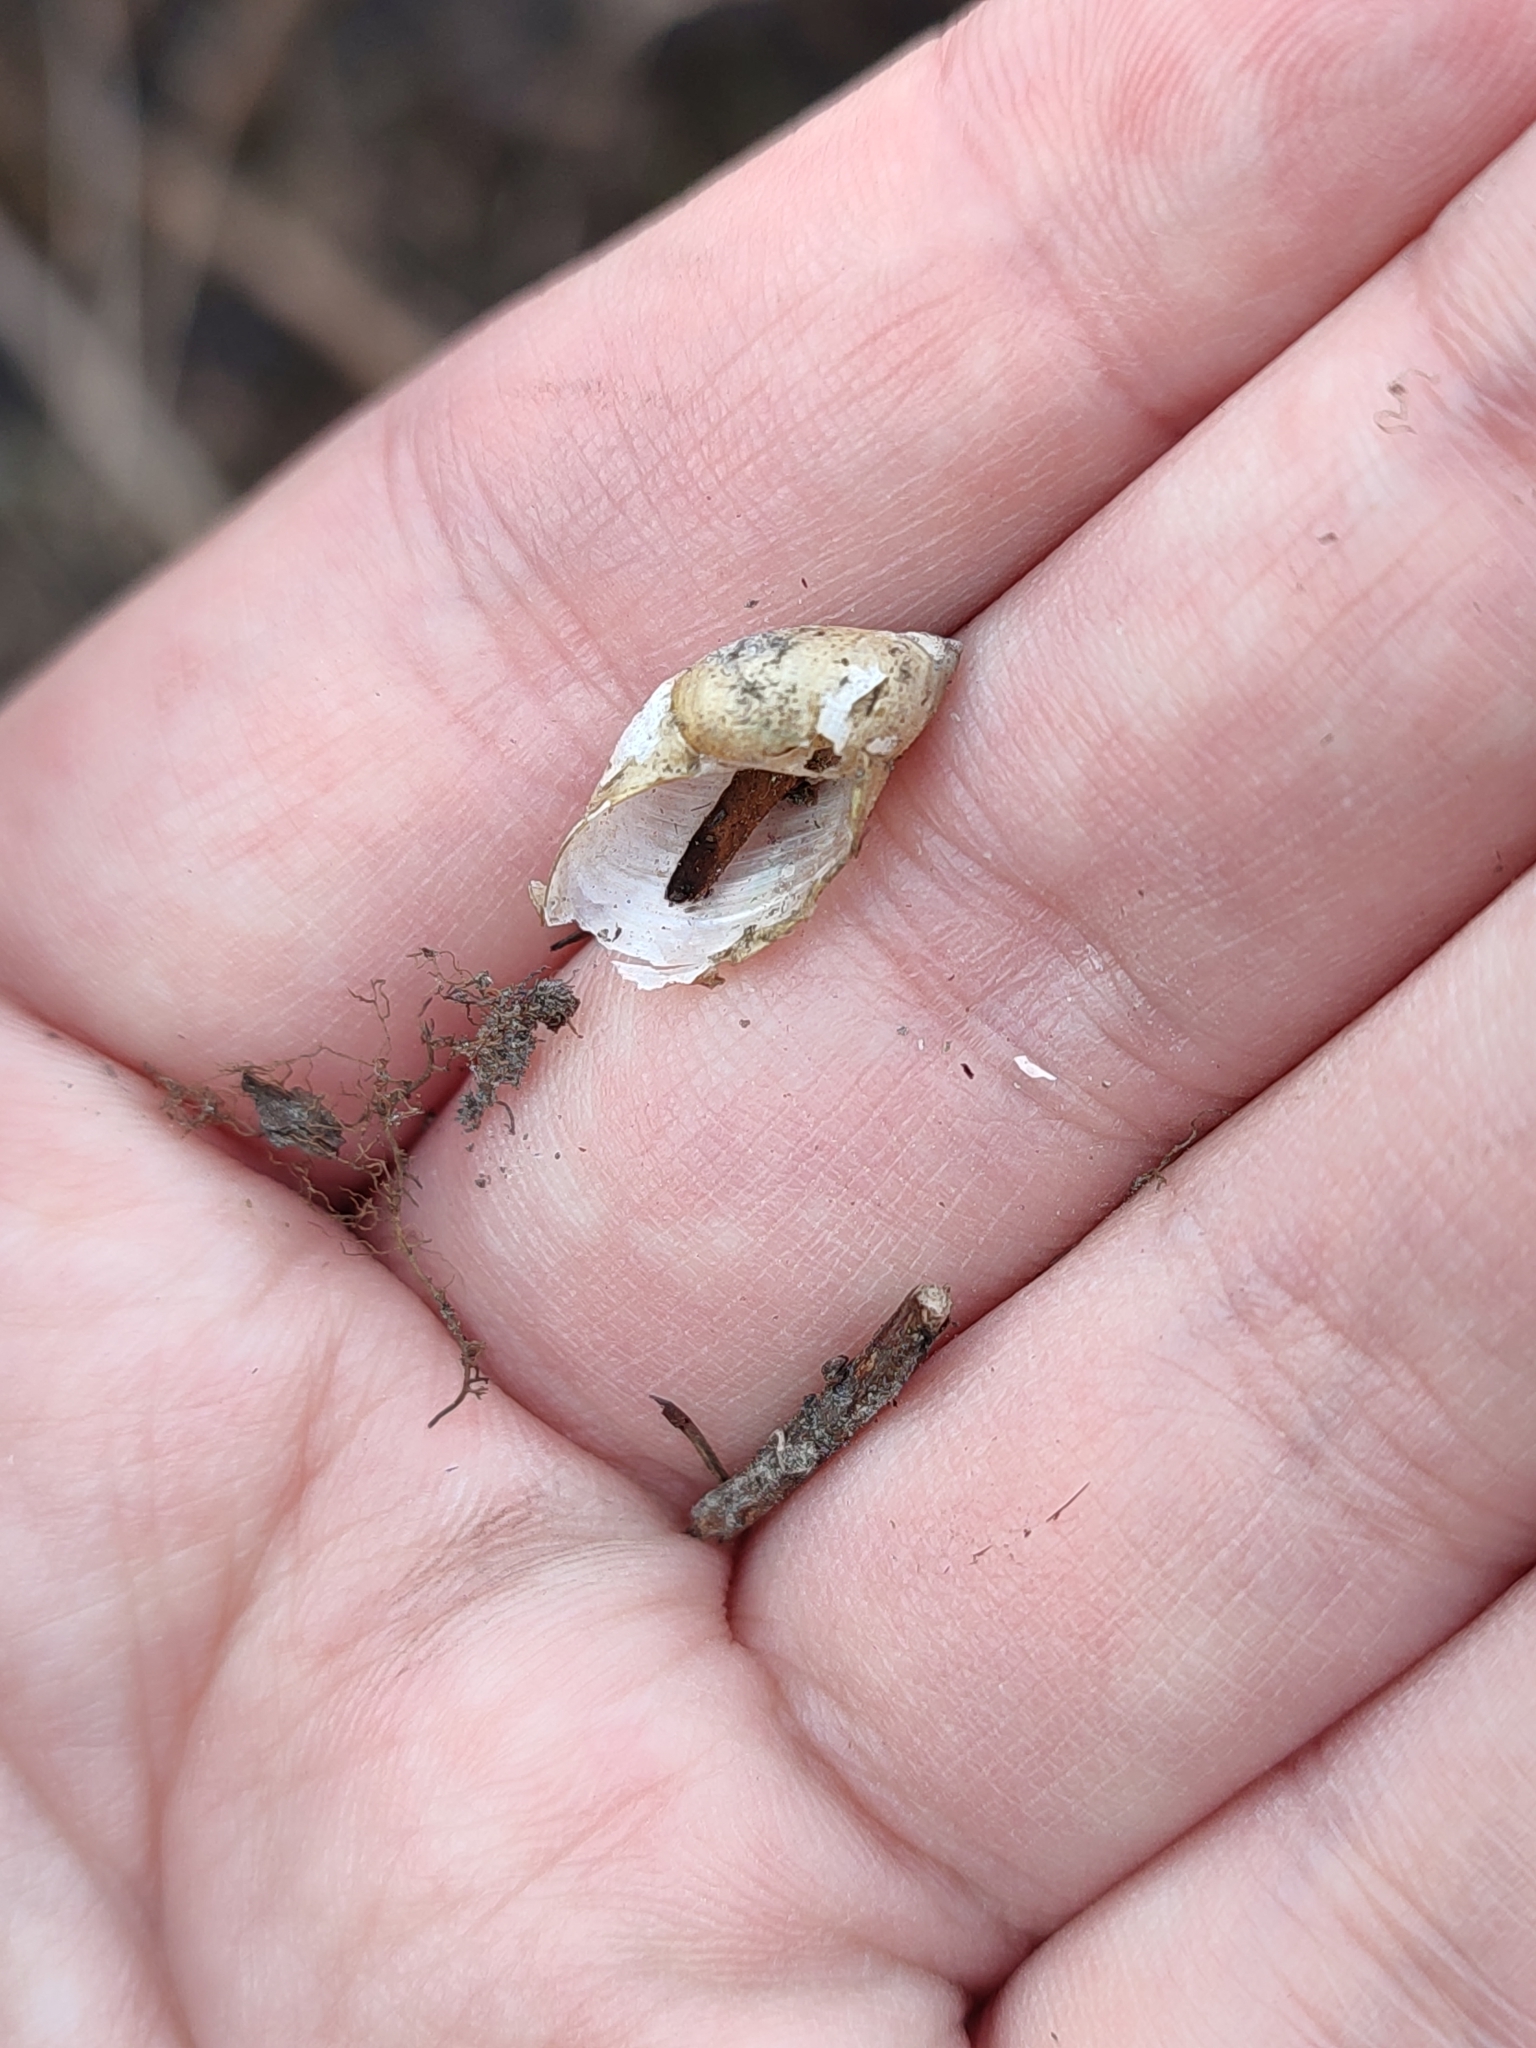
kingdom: Animalia
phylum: Mollusca
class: Gastropoda
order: Stylommatophora
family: Succineidae
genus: Succinea
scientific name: Succinea putris
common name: European ambersnail
